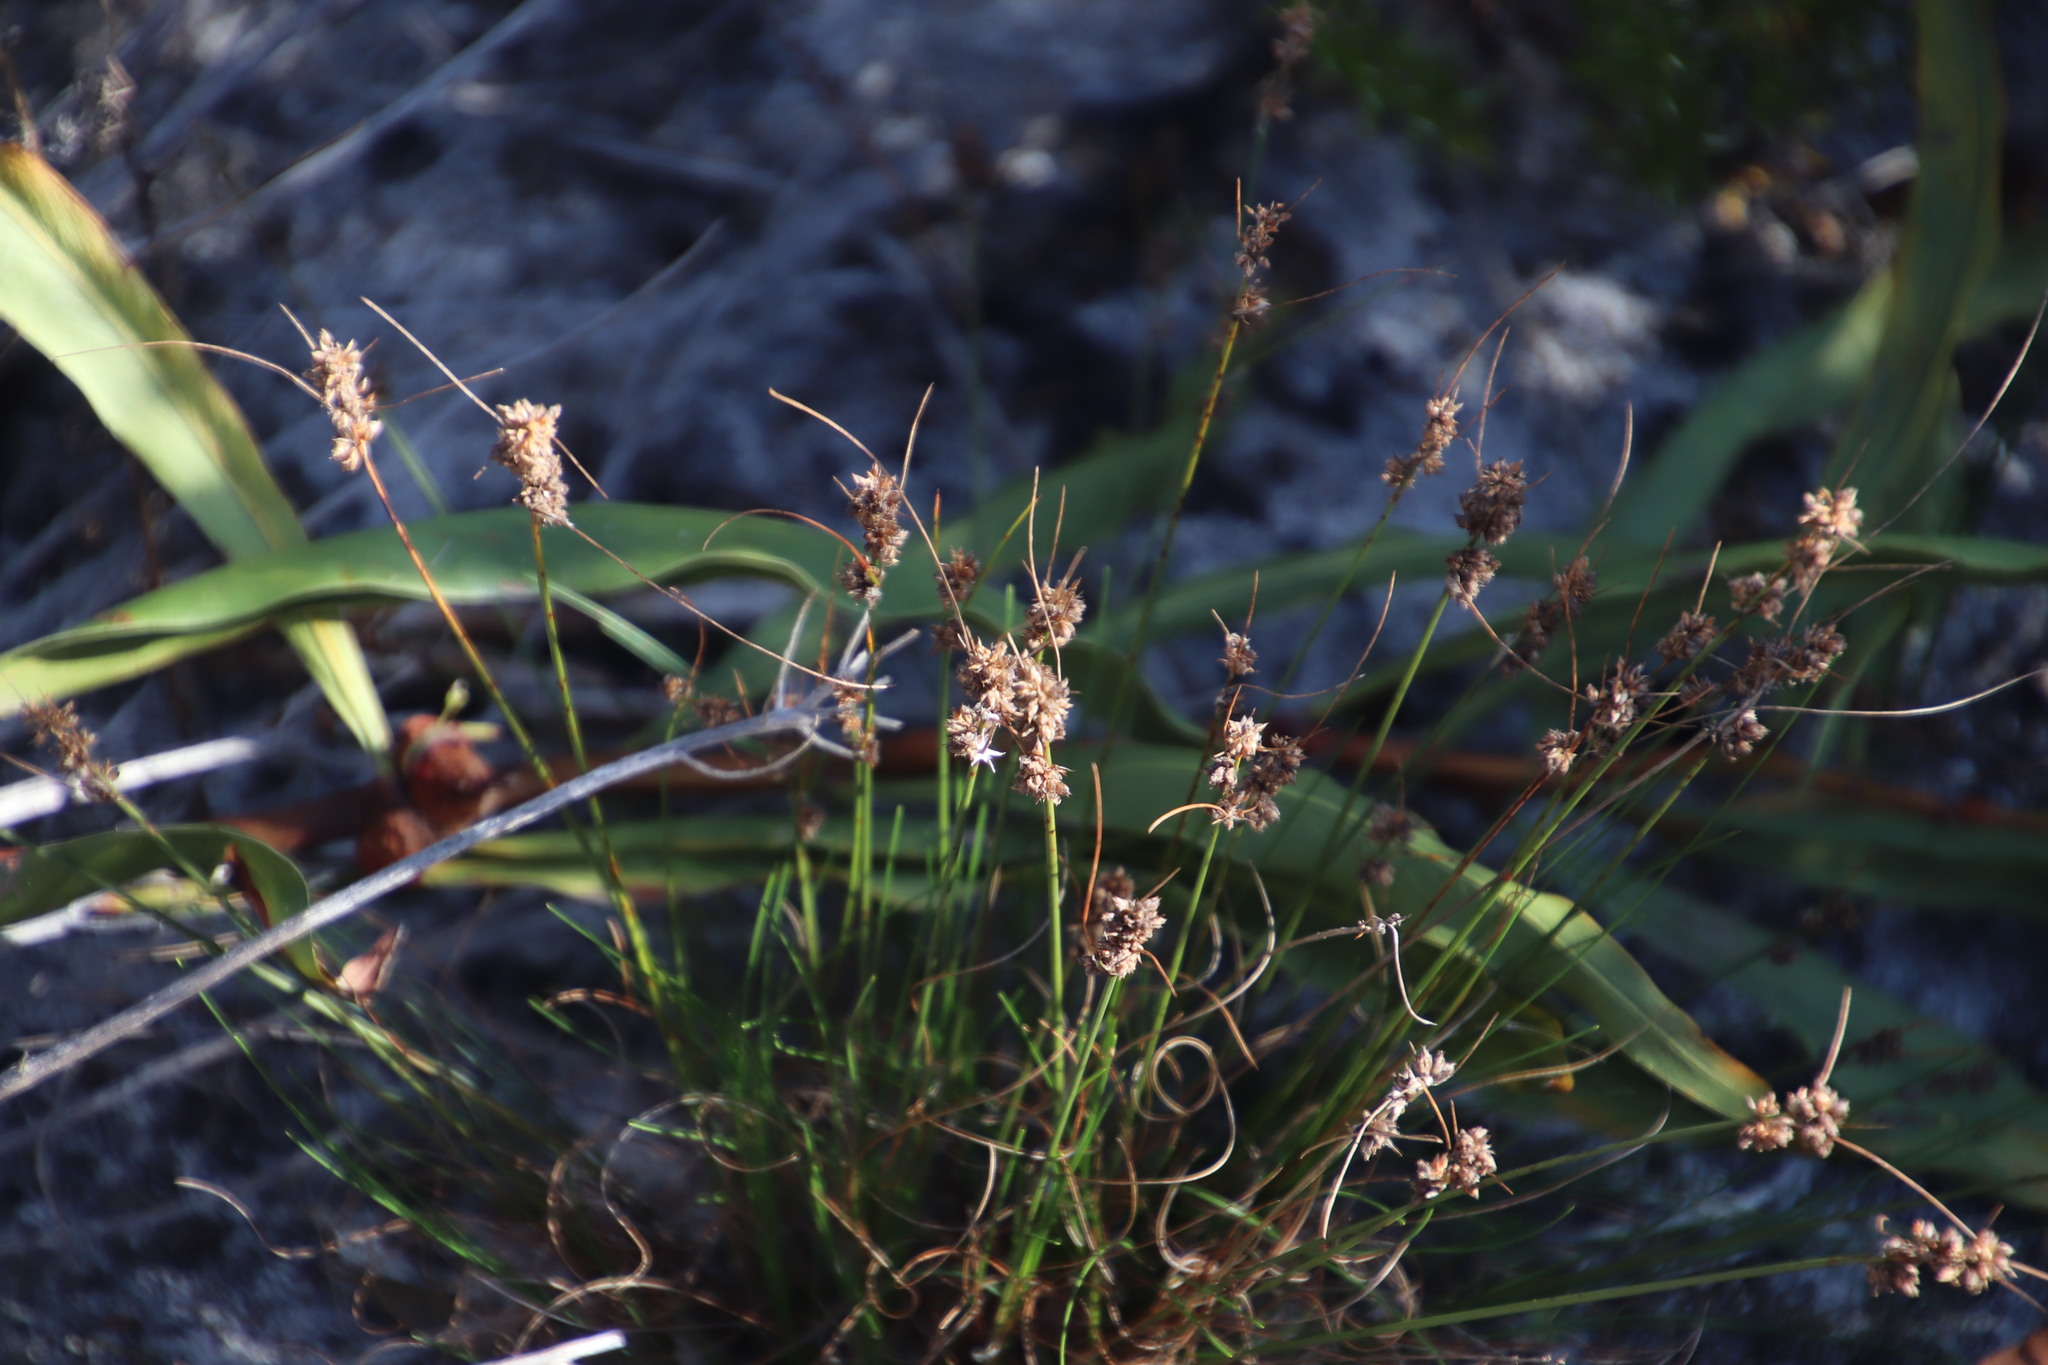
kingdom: Plantae
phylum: Tracheophyta
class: Liliopsida
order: Poales
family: Cyperaceae
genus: Ficinia
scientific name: Ficinia bulbosa
